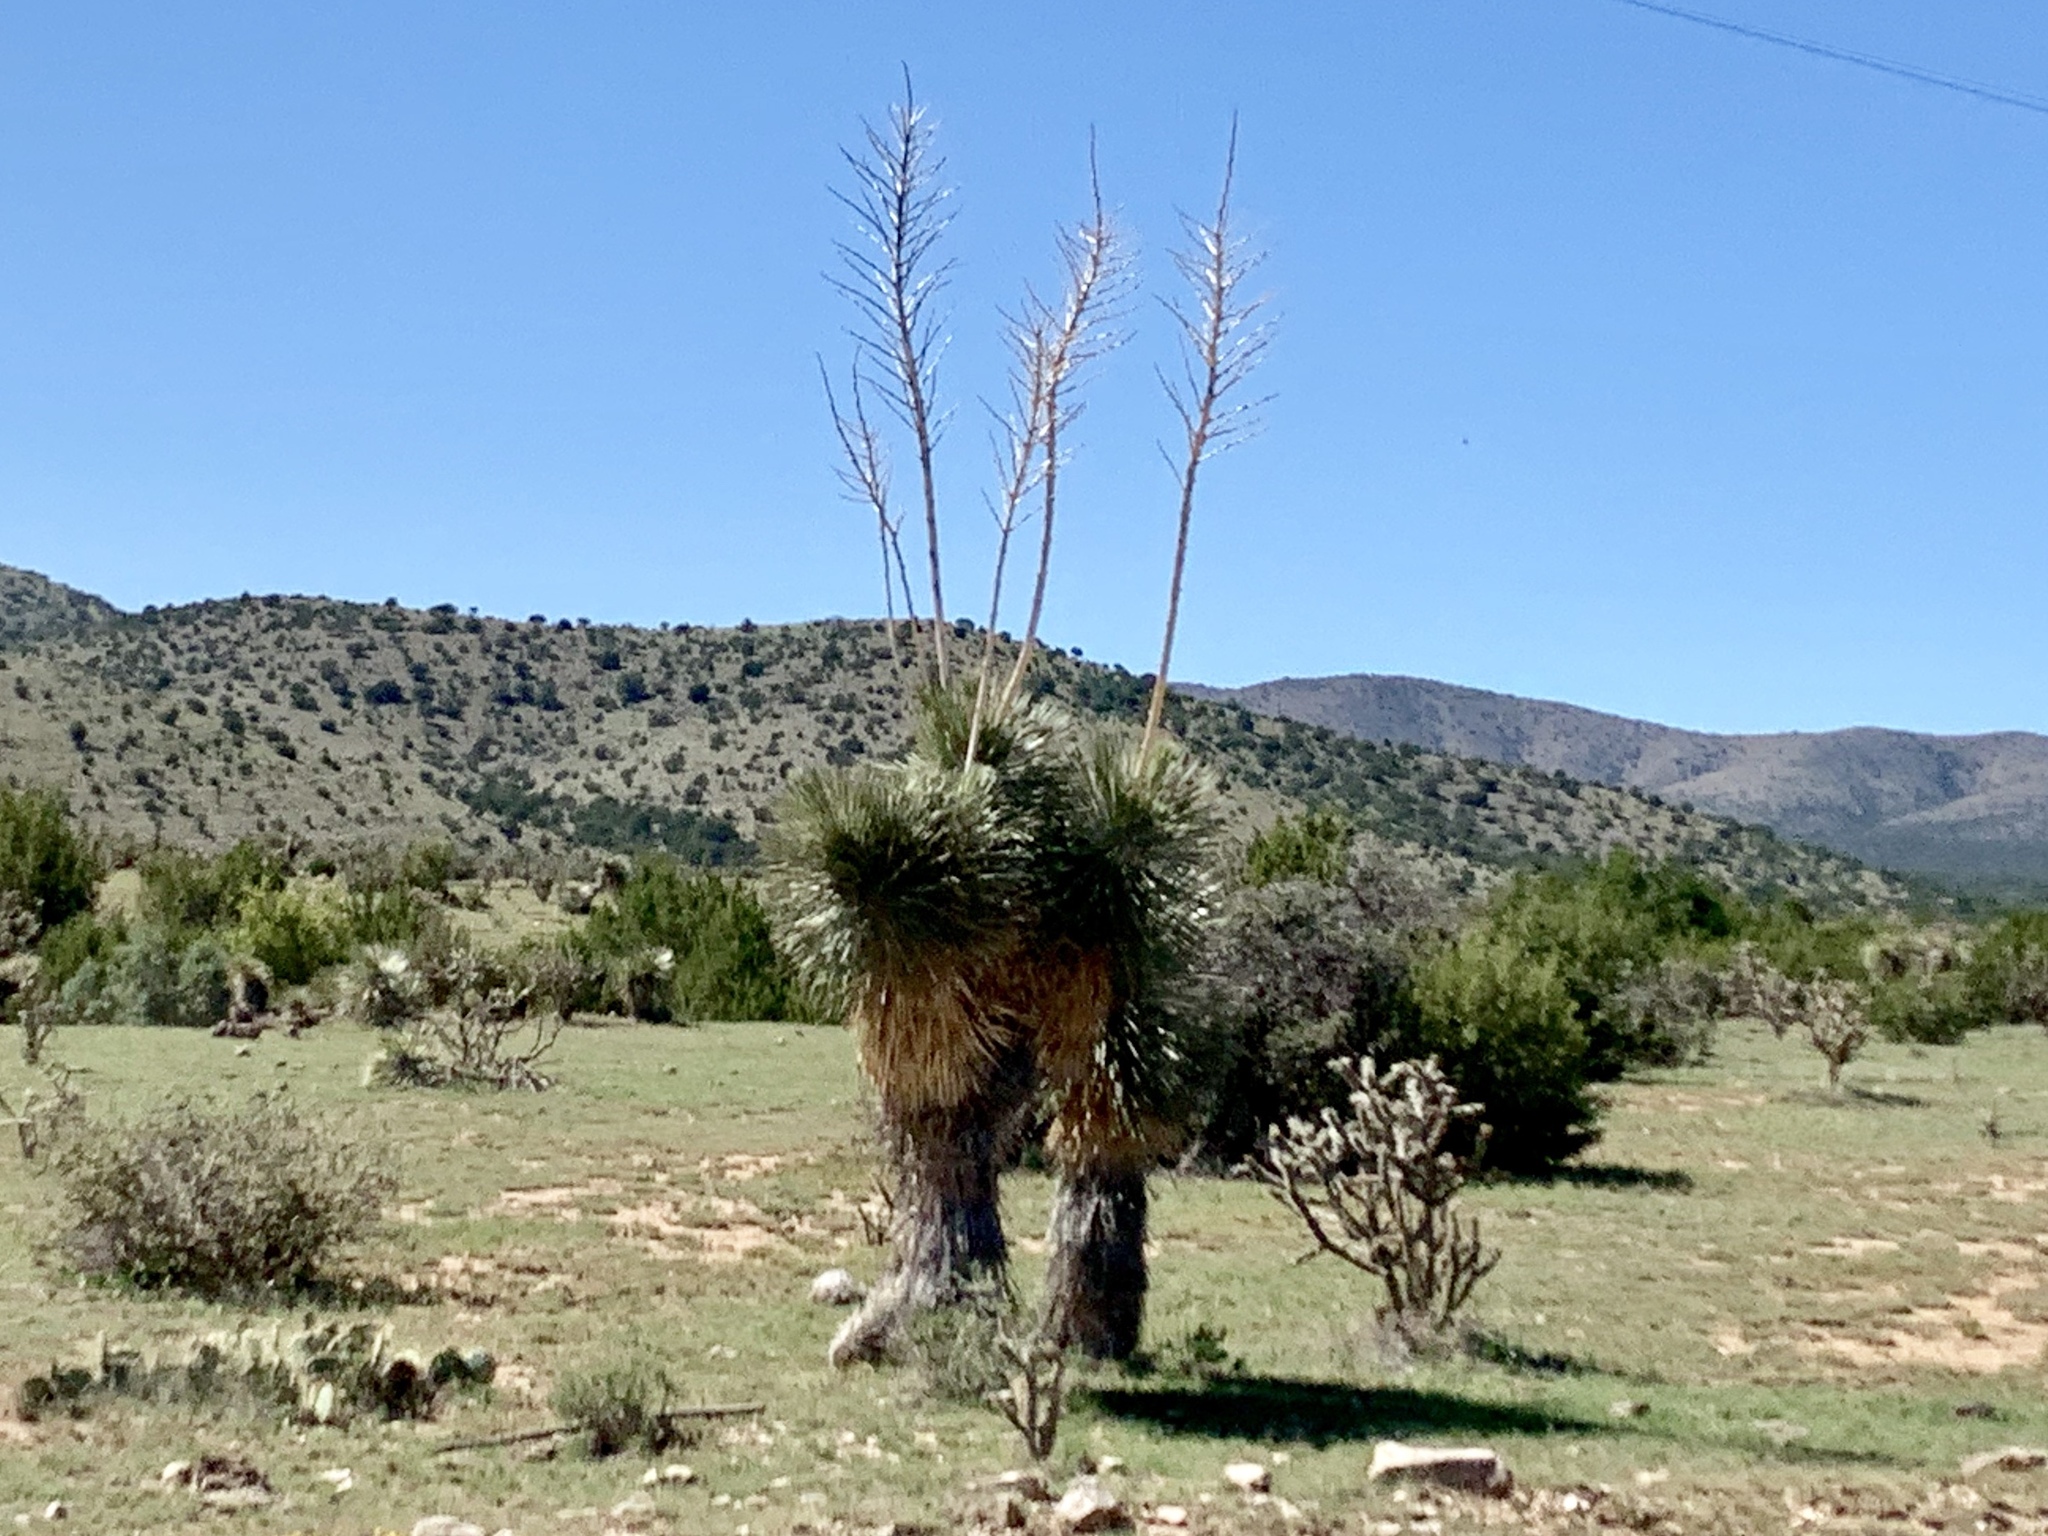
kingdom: Plantae
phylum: Tracheophyta
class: Liliopsida
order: Asparagales
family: Asparagaceae
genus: Yucca
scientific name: Yucca elata
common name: Palmella
